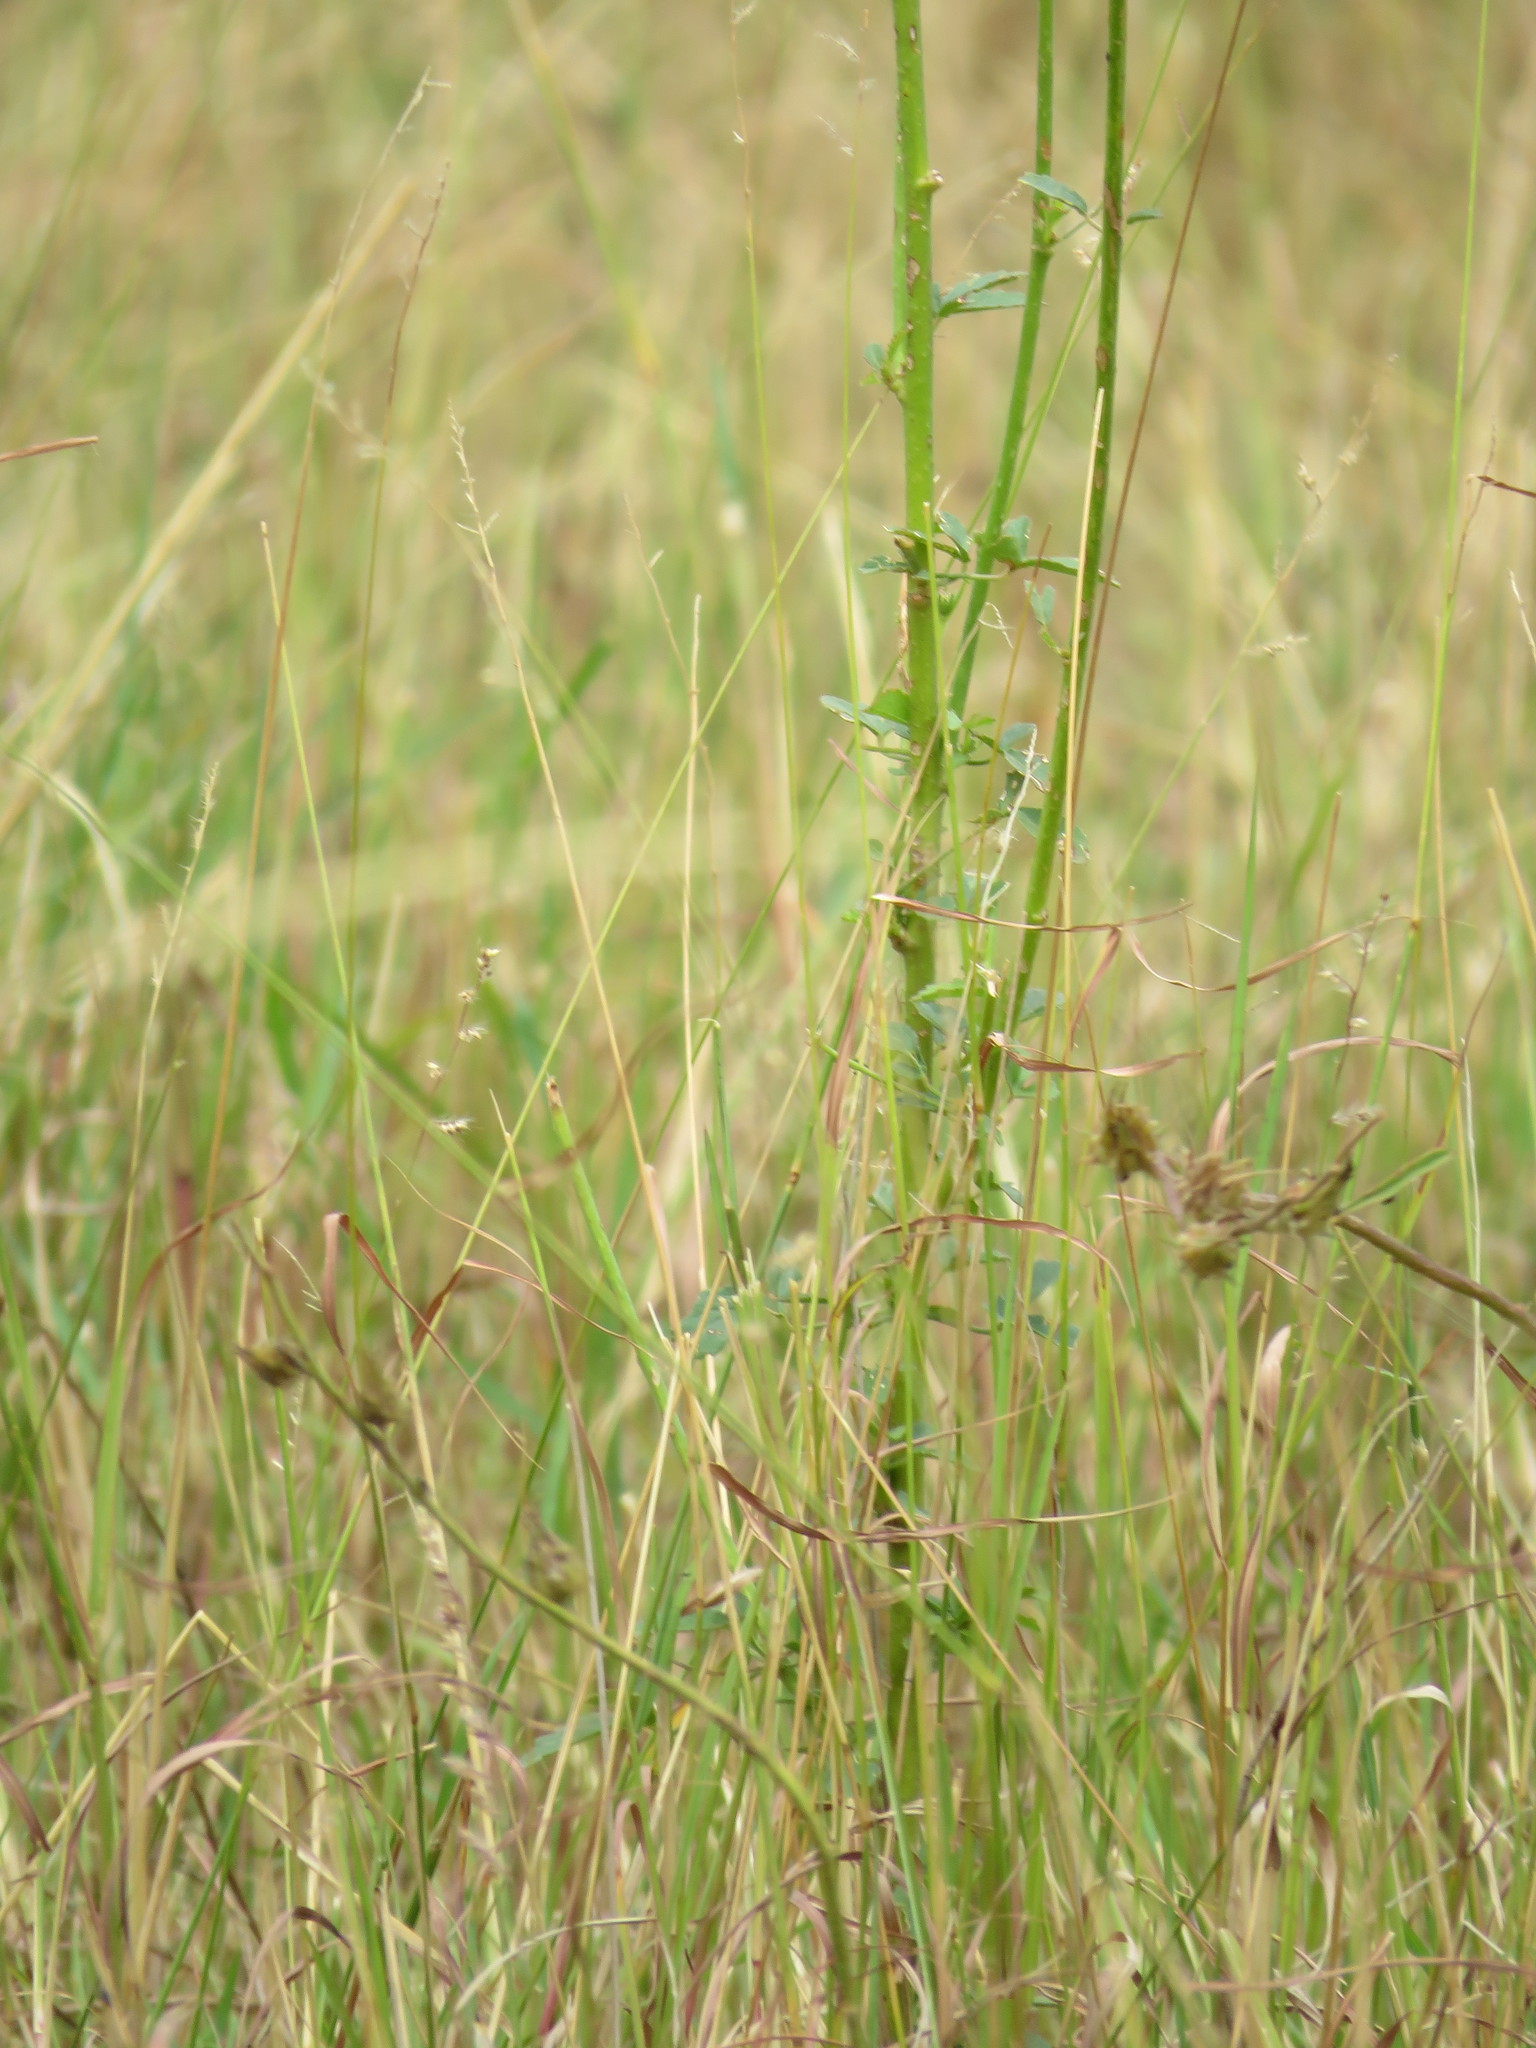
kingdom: Plantae
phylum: Tracheophyta
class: Magnoliopsida
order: Malvales
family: Malvaceae
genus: Hibiscus
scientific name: Hibiscus cannabinus
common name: Brown indianhemp
